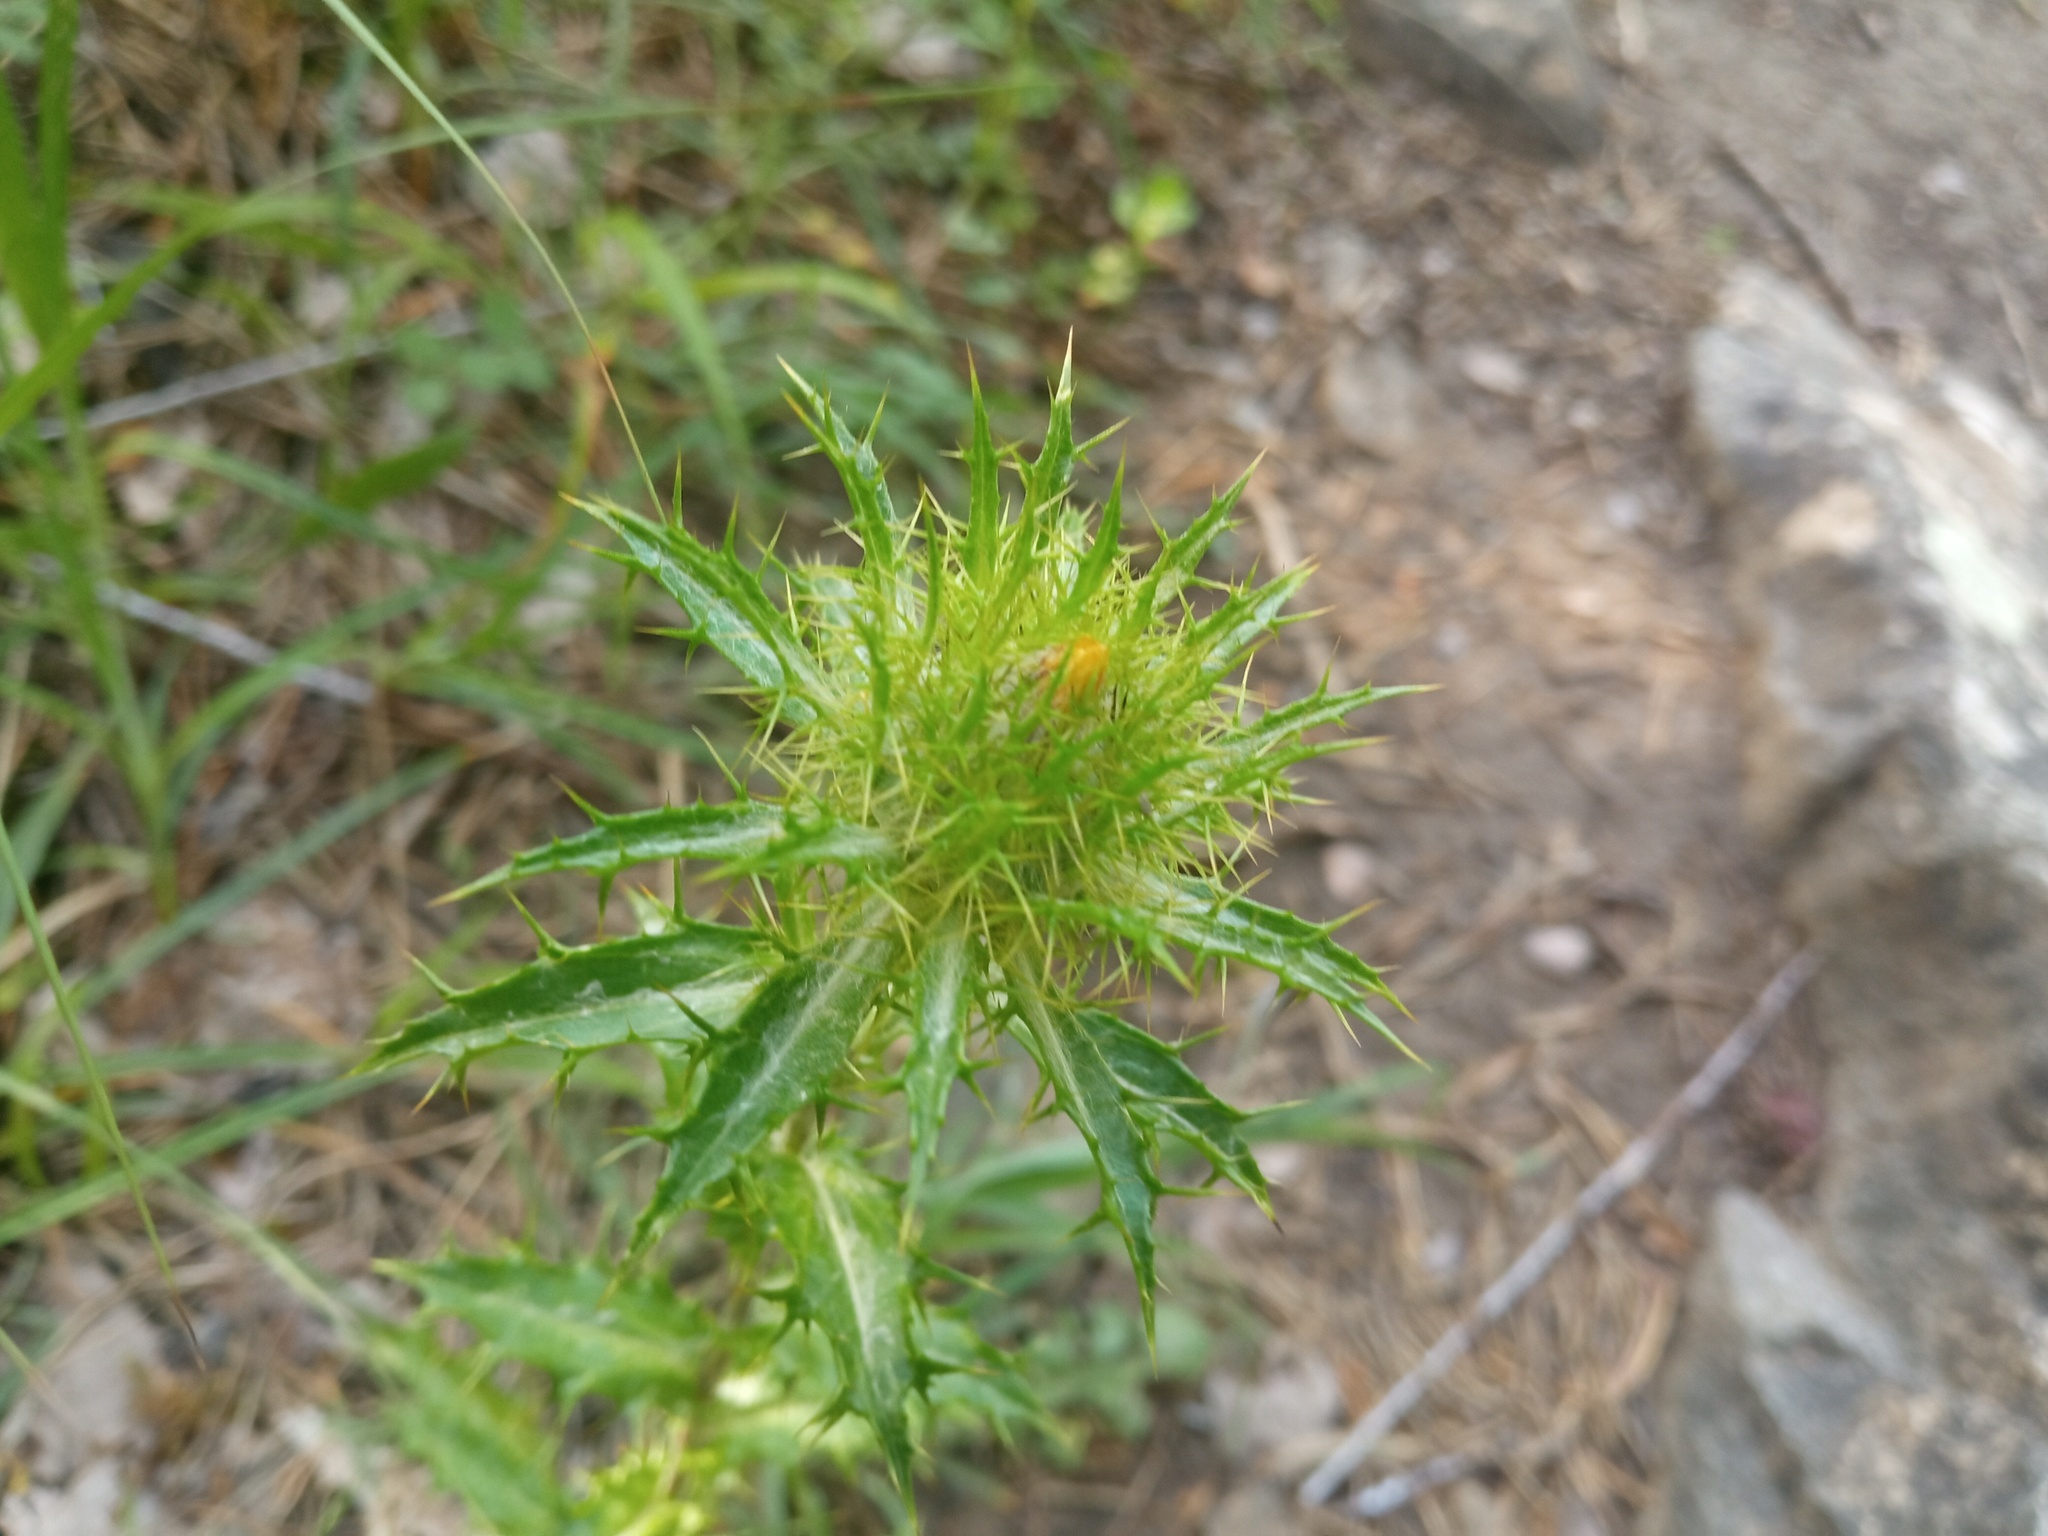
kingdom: Plantae
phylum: Tracheophyta
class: Magnoliopsida
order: Asterales
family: Asteraceae
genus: Carlina
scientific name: Carlina vulgaris
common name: Carline thistle
